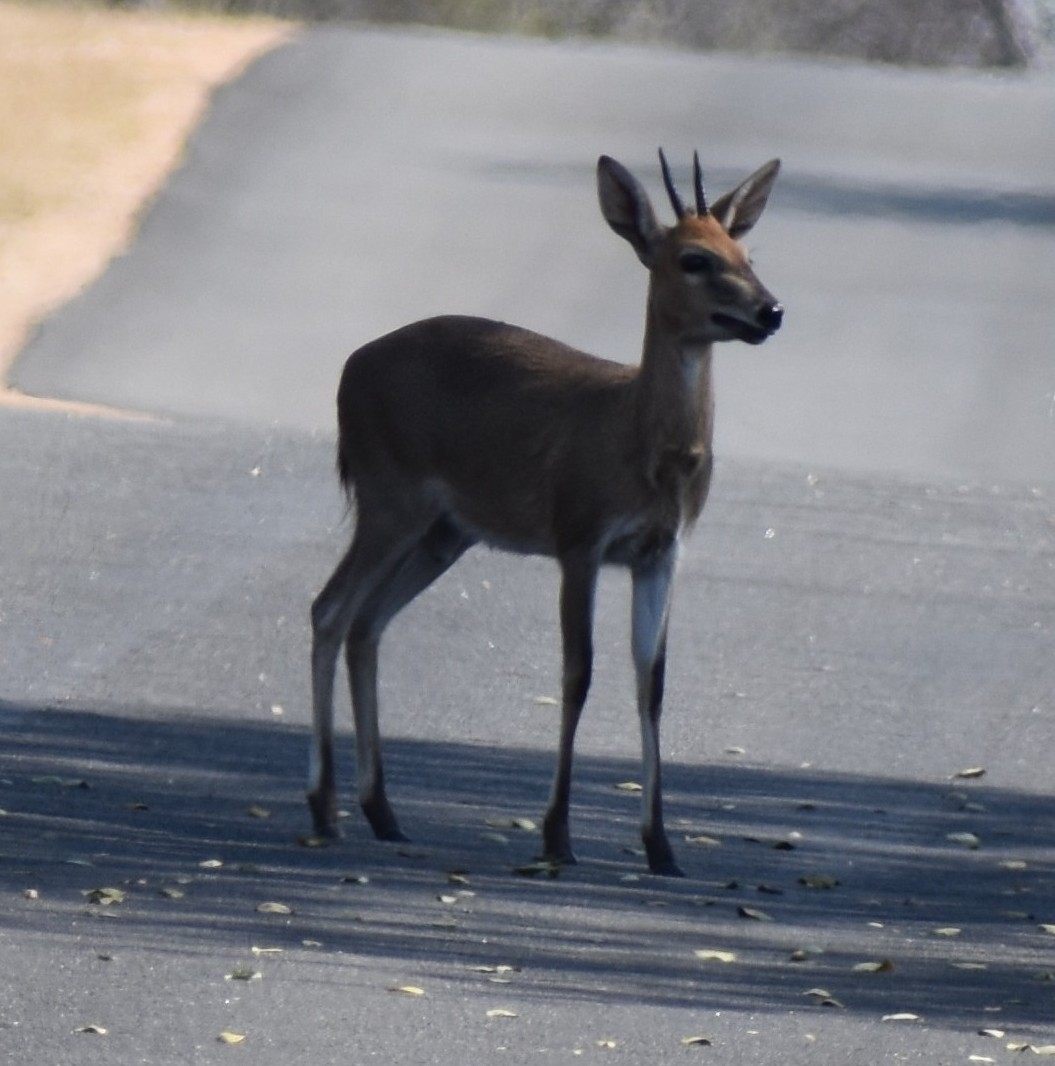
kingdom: Animalia
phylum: Chordata
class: Mammalia
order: Artiodactyla
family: Bovidae
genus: Sylvicapra
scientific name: Sylvicapra grimmia
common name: Bush duiker
